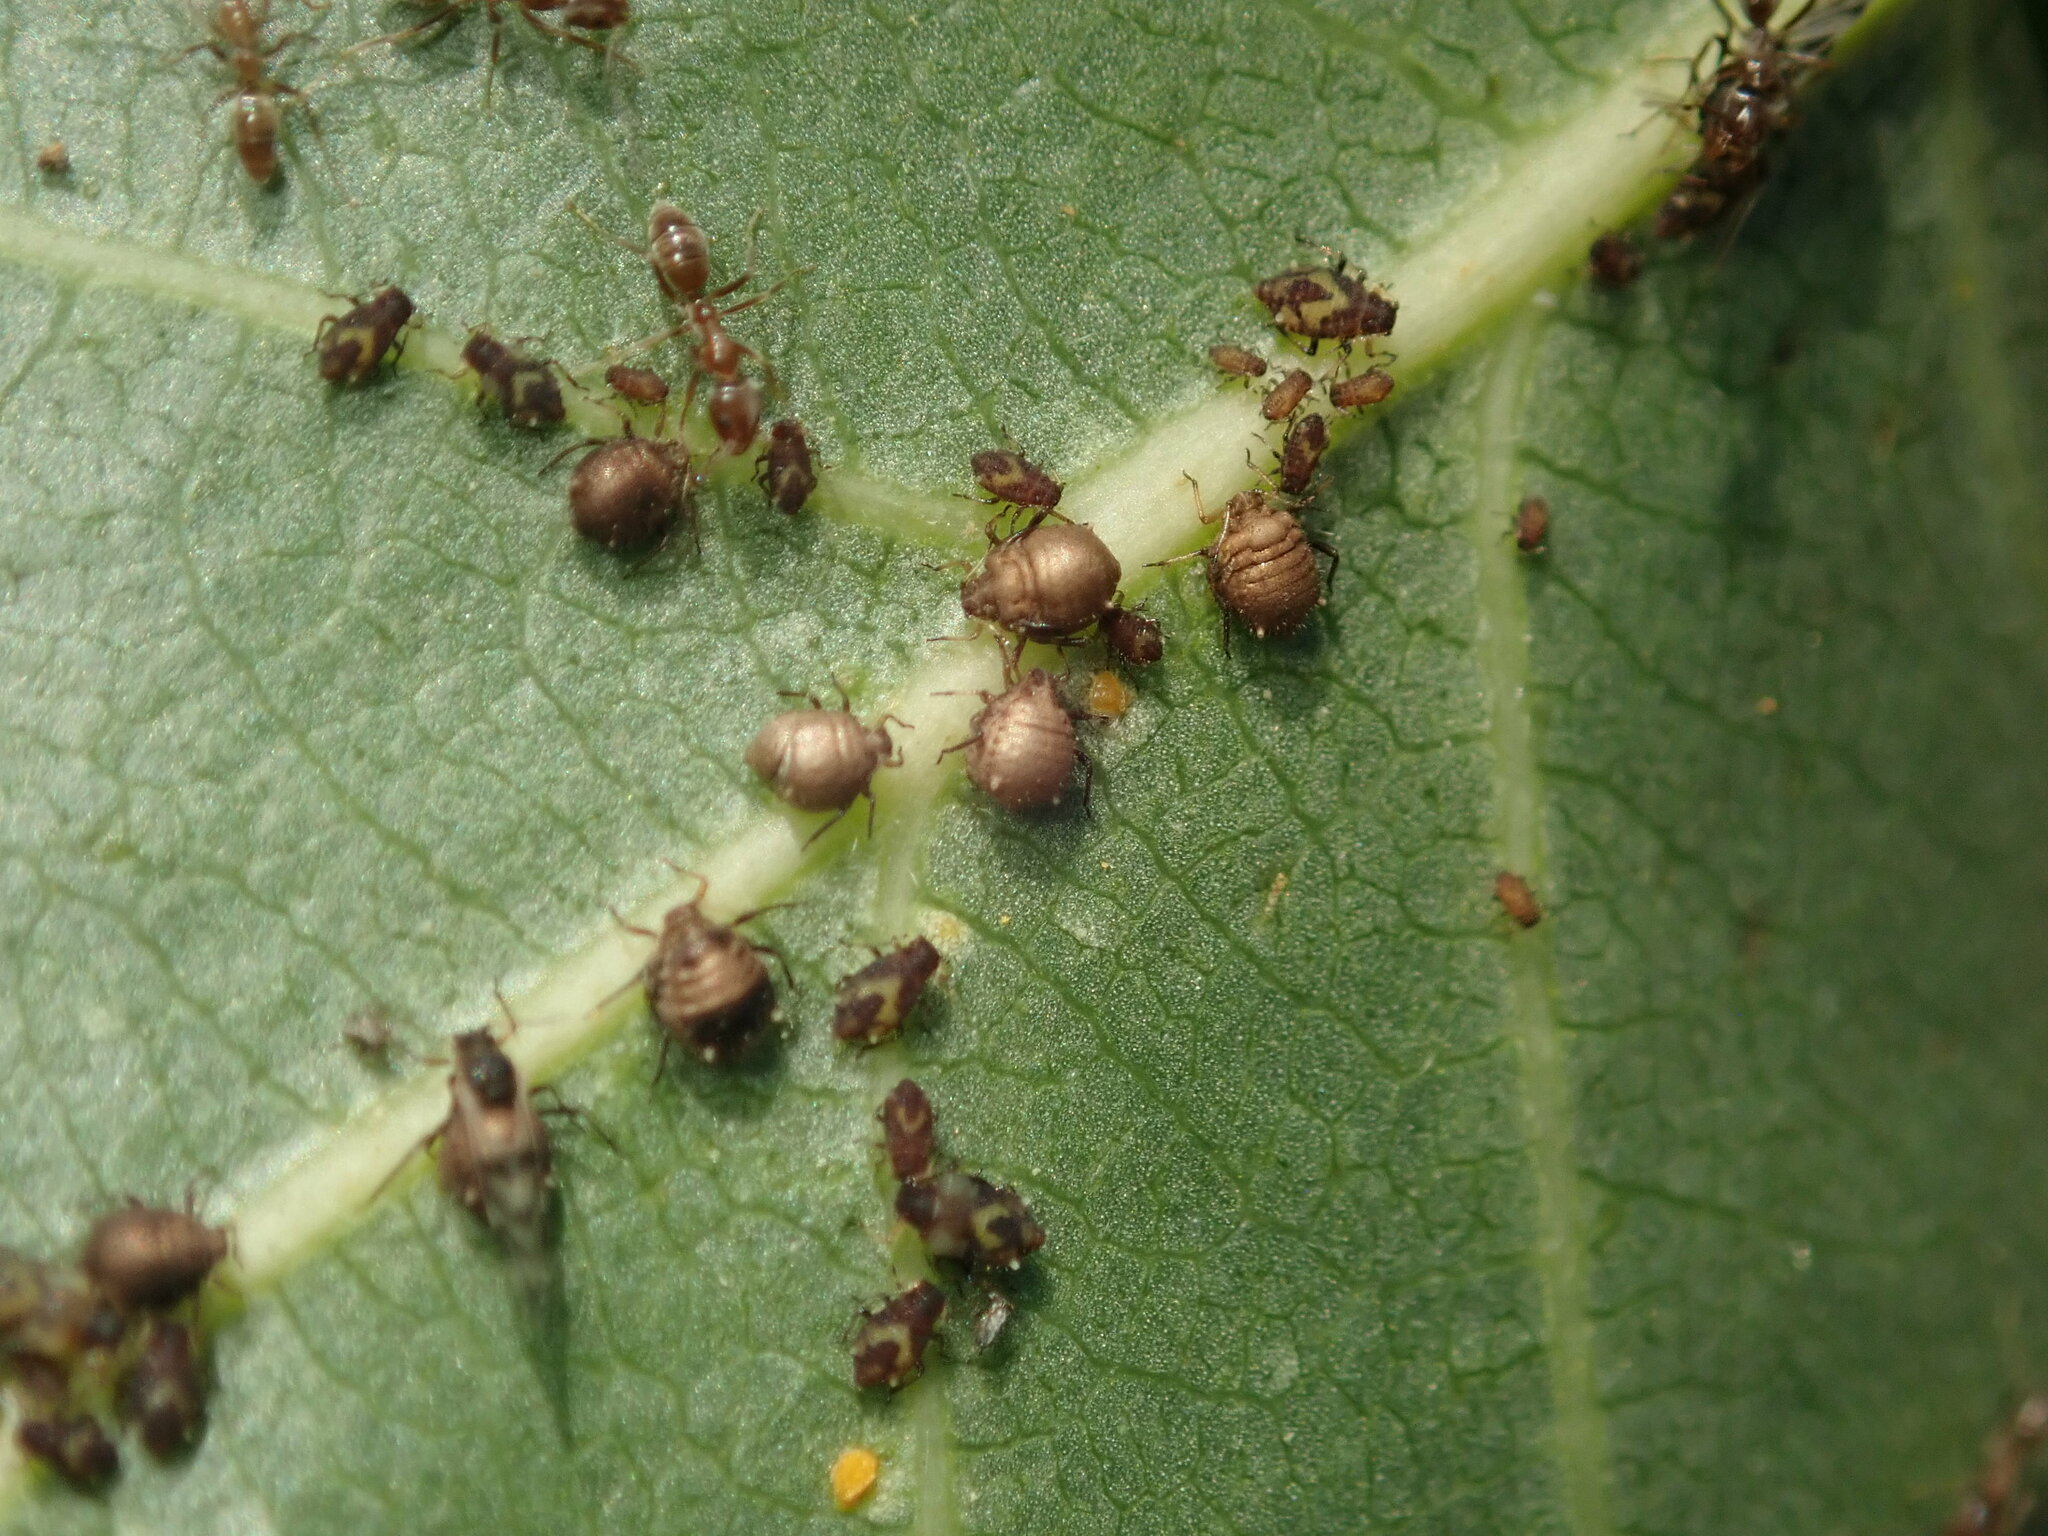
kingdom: Animalia
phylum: Arthropoda
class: Insecta
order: Hemiptera
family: Aphididae
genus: Chaitophorus
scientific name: Chaitophorus populicola
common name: Smokywinged poplar aphid
